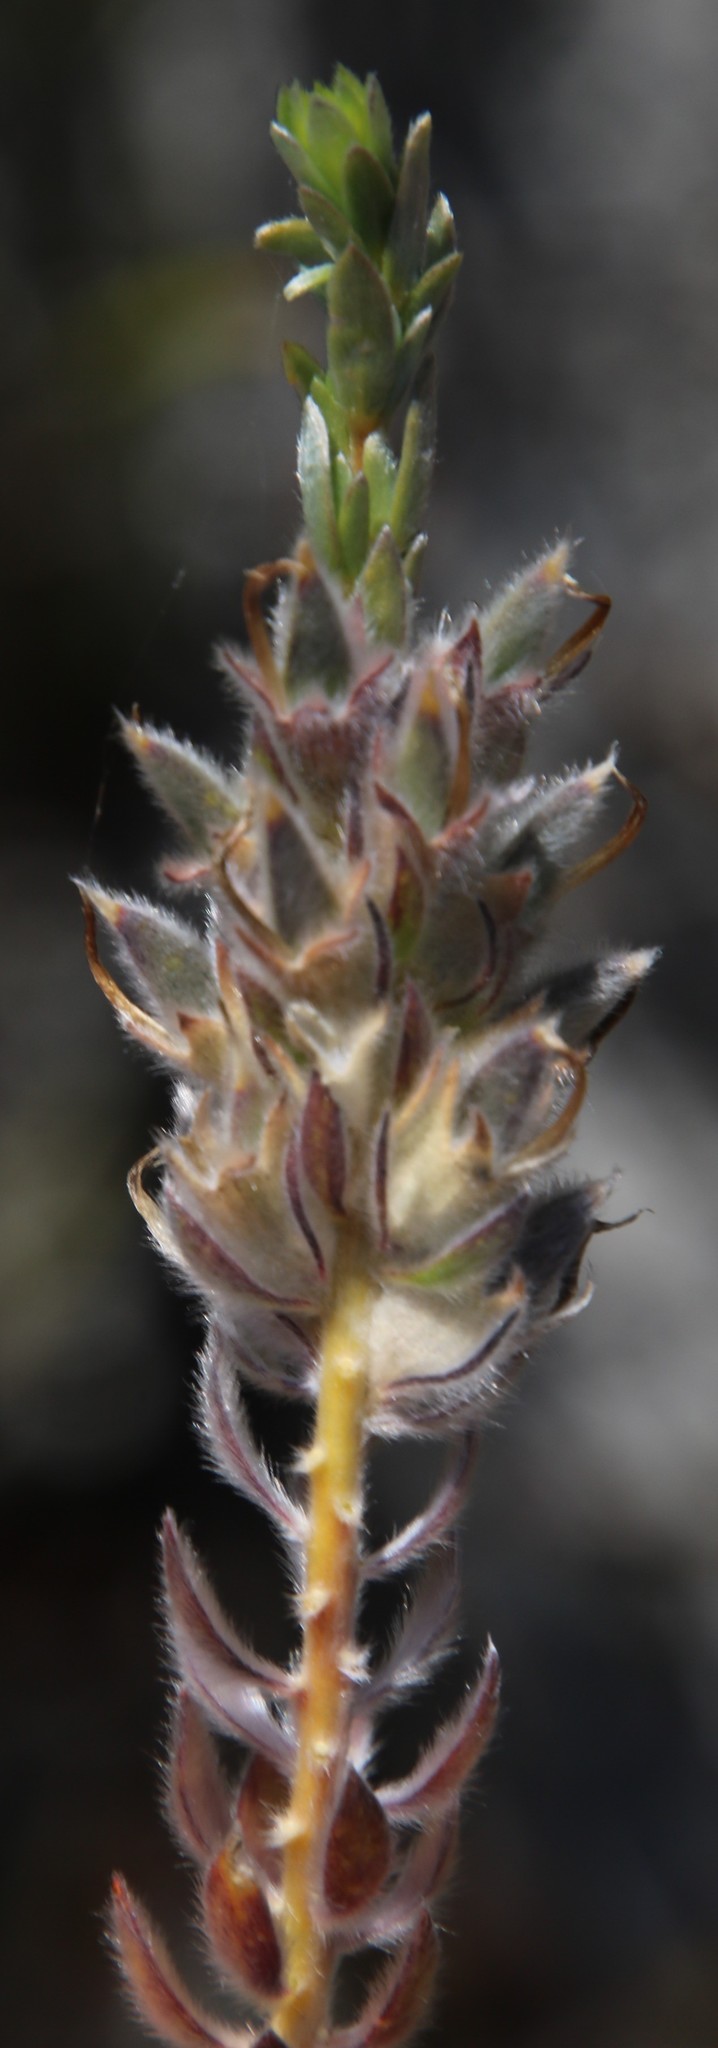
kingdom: Plantae
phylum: Tracheophyta
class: Magnoliopsida
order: Fabales
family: Fabaceae
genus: Aspalathus
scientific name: Aspalathus sericea
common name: Silky pea
